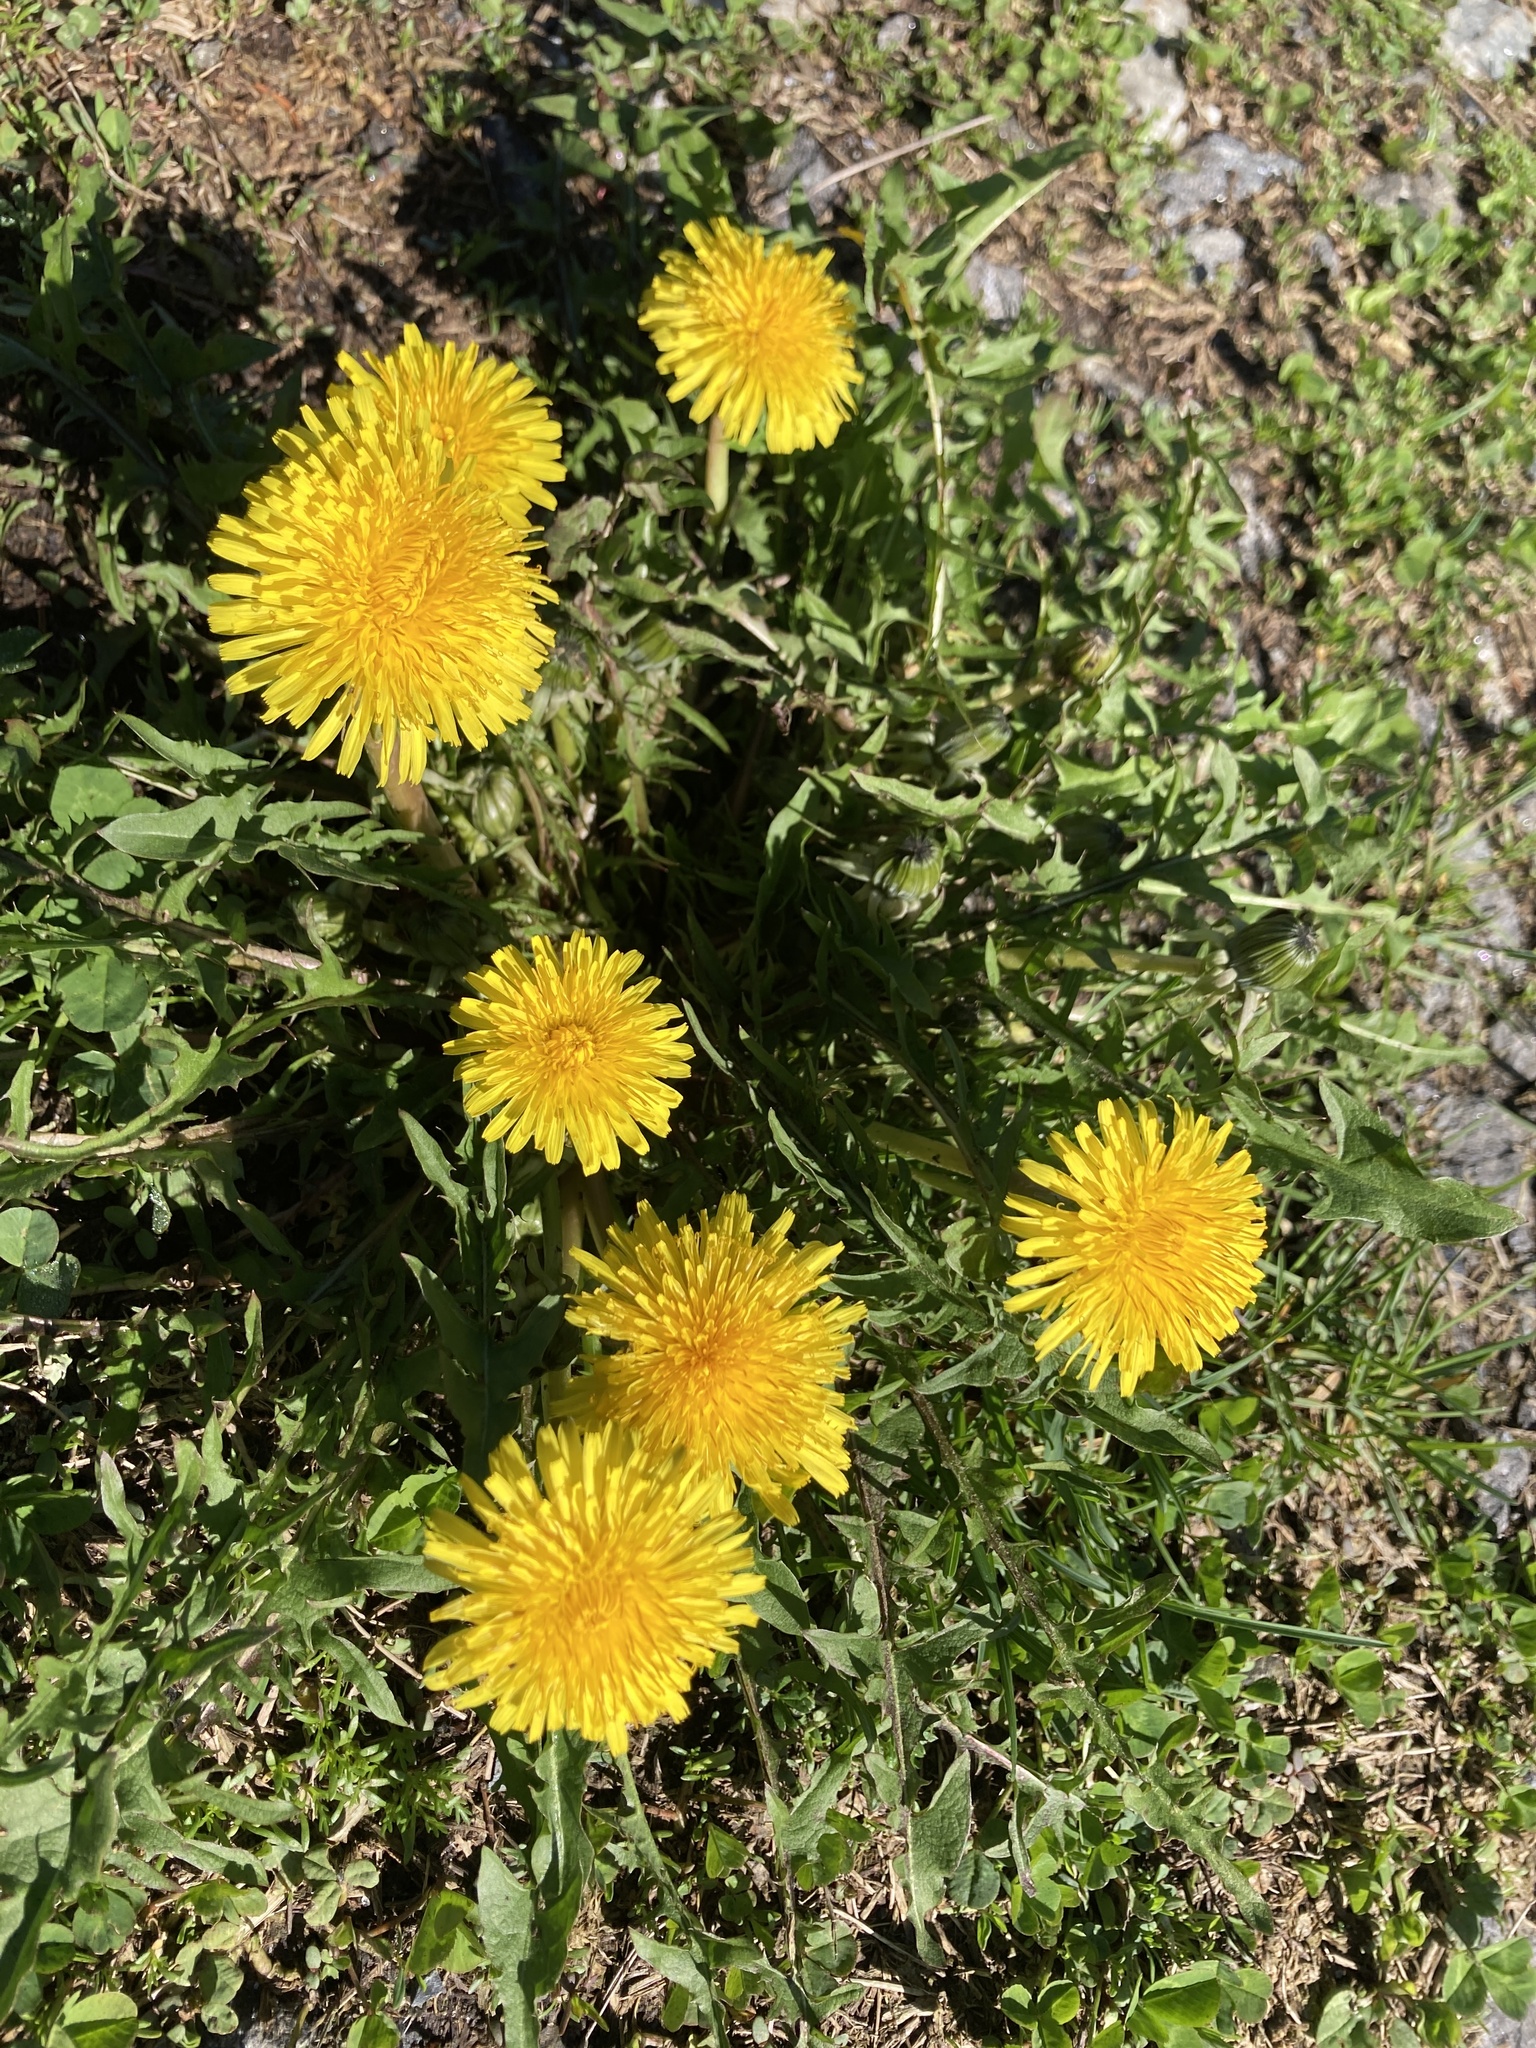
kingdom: Plantae
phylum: Tracheophyta
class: Magnoliopsida
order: Asterales
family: Asteraceae
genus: Taraxacum
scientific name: Taraxacum officinale
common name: Common dandelion
